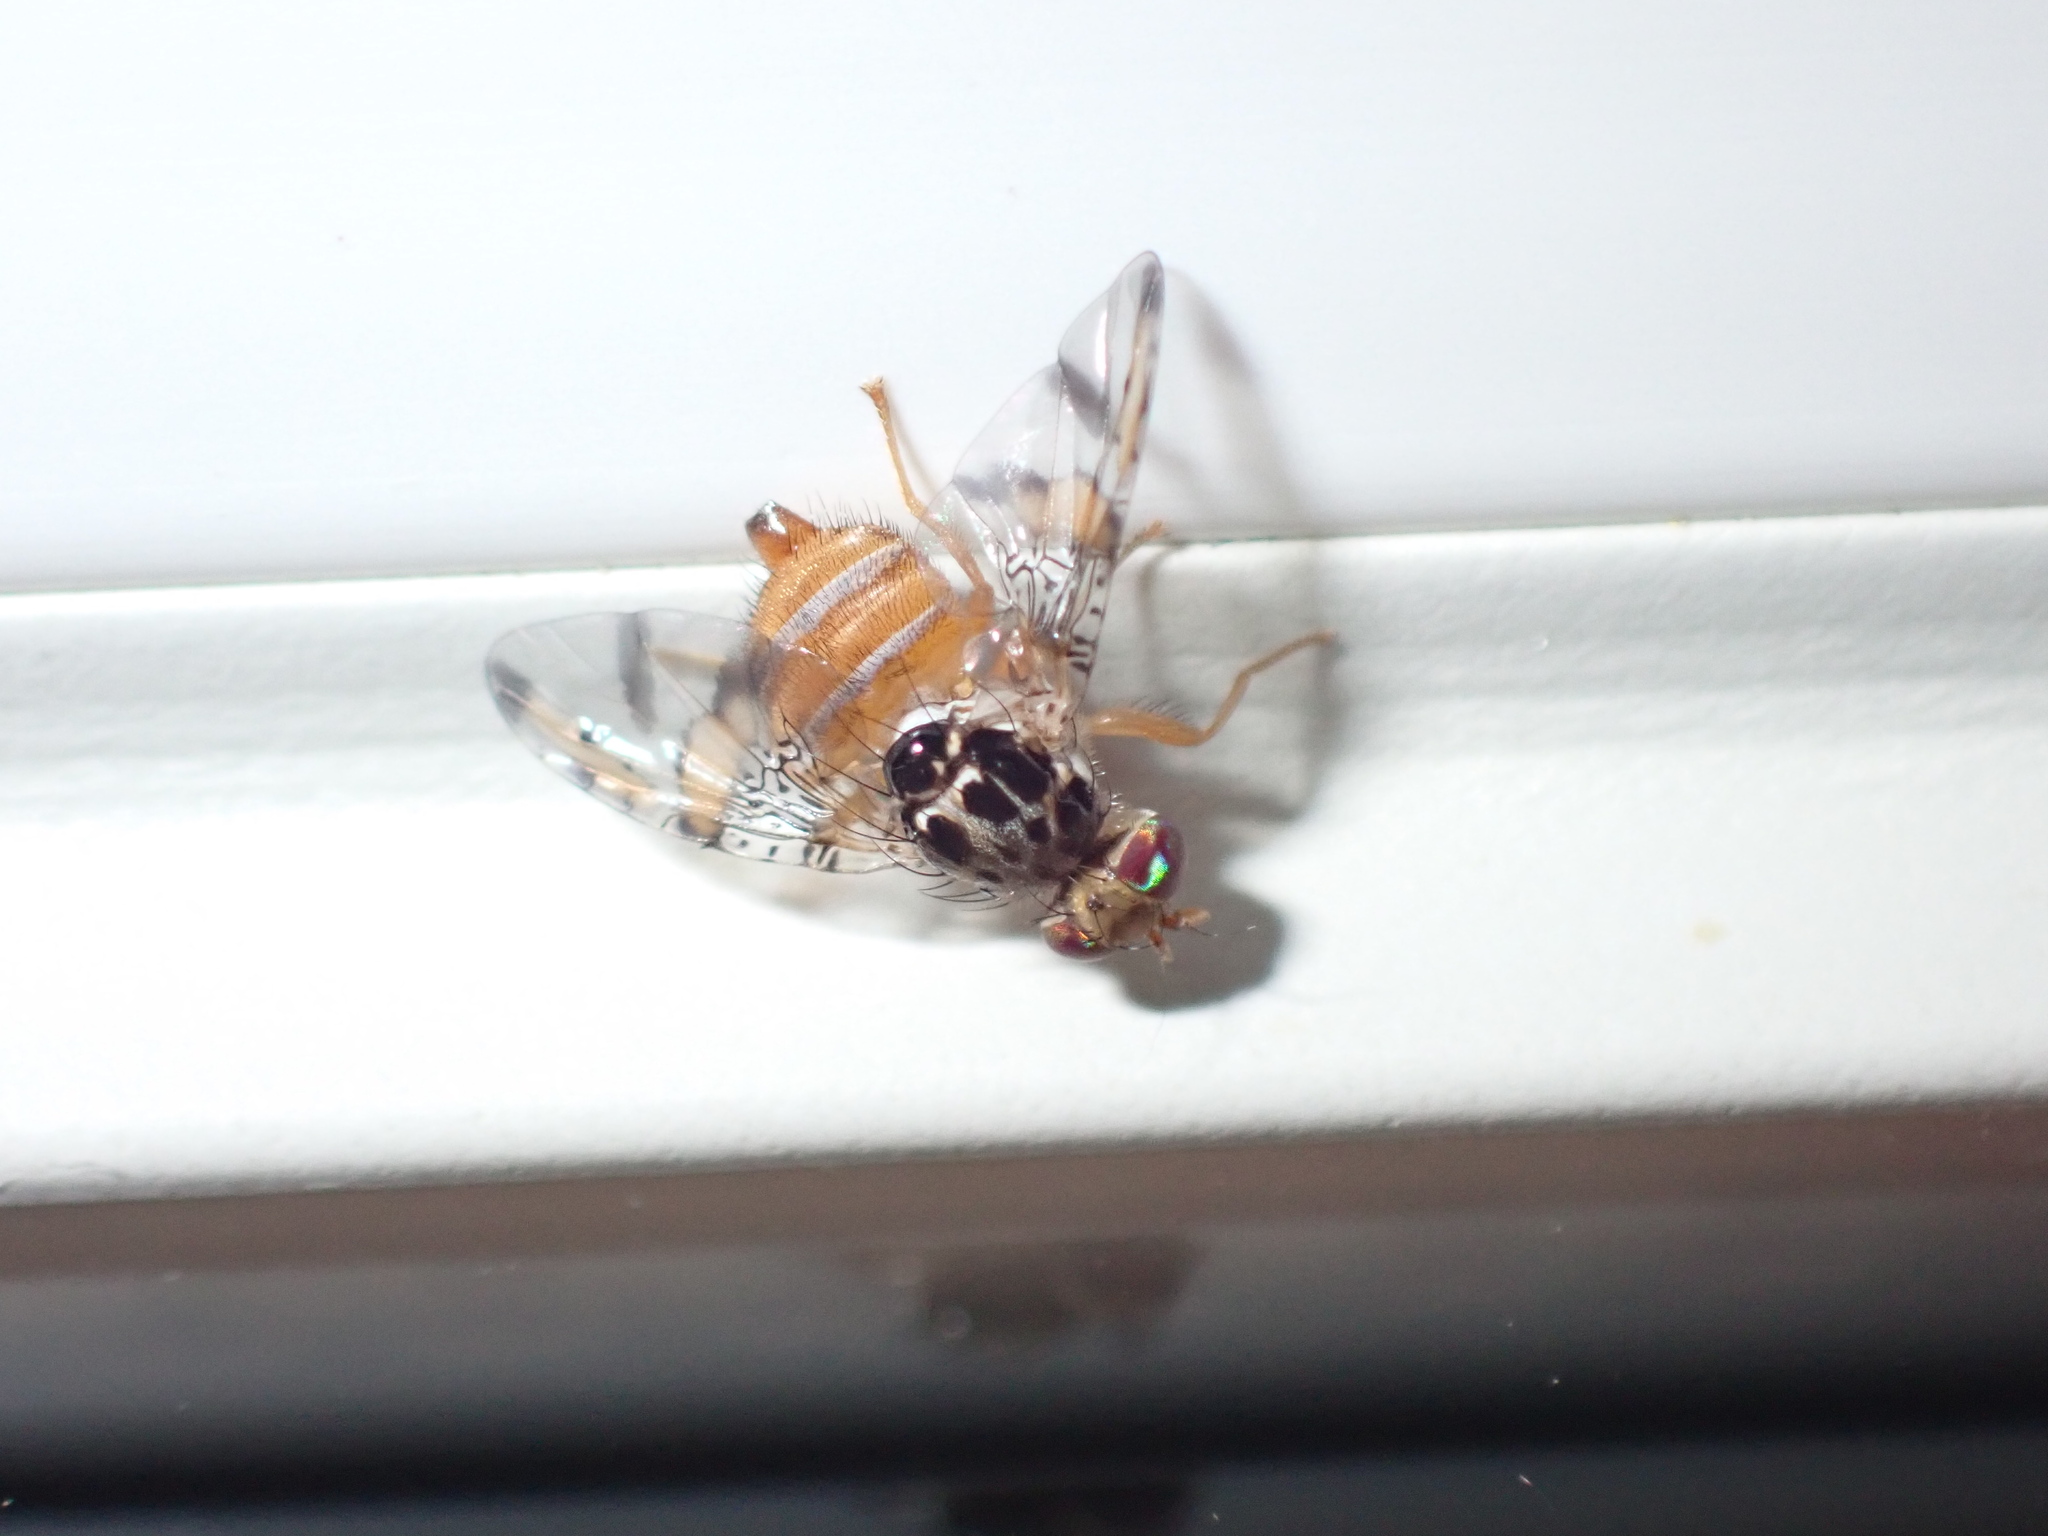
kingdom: Animalia
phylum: Arthropoda
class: Insecta
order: Diptera
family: Tephritidae
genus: Ceratitis
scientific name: Ceratitis capitata
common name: Mediterranean fruit fly
